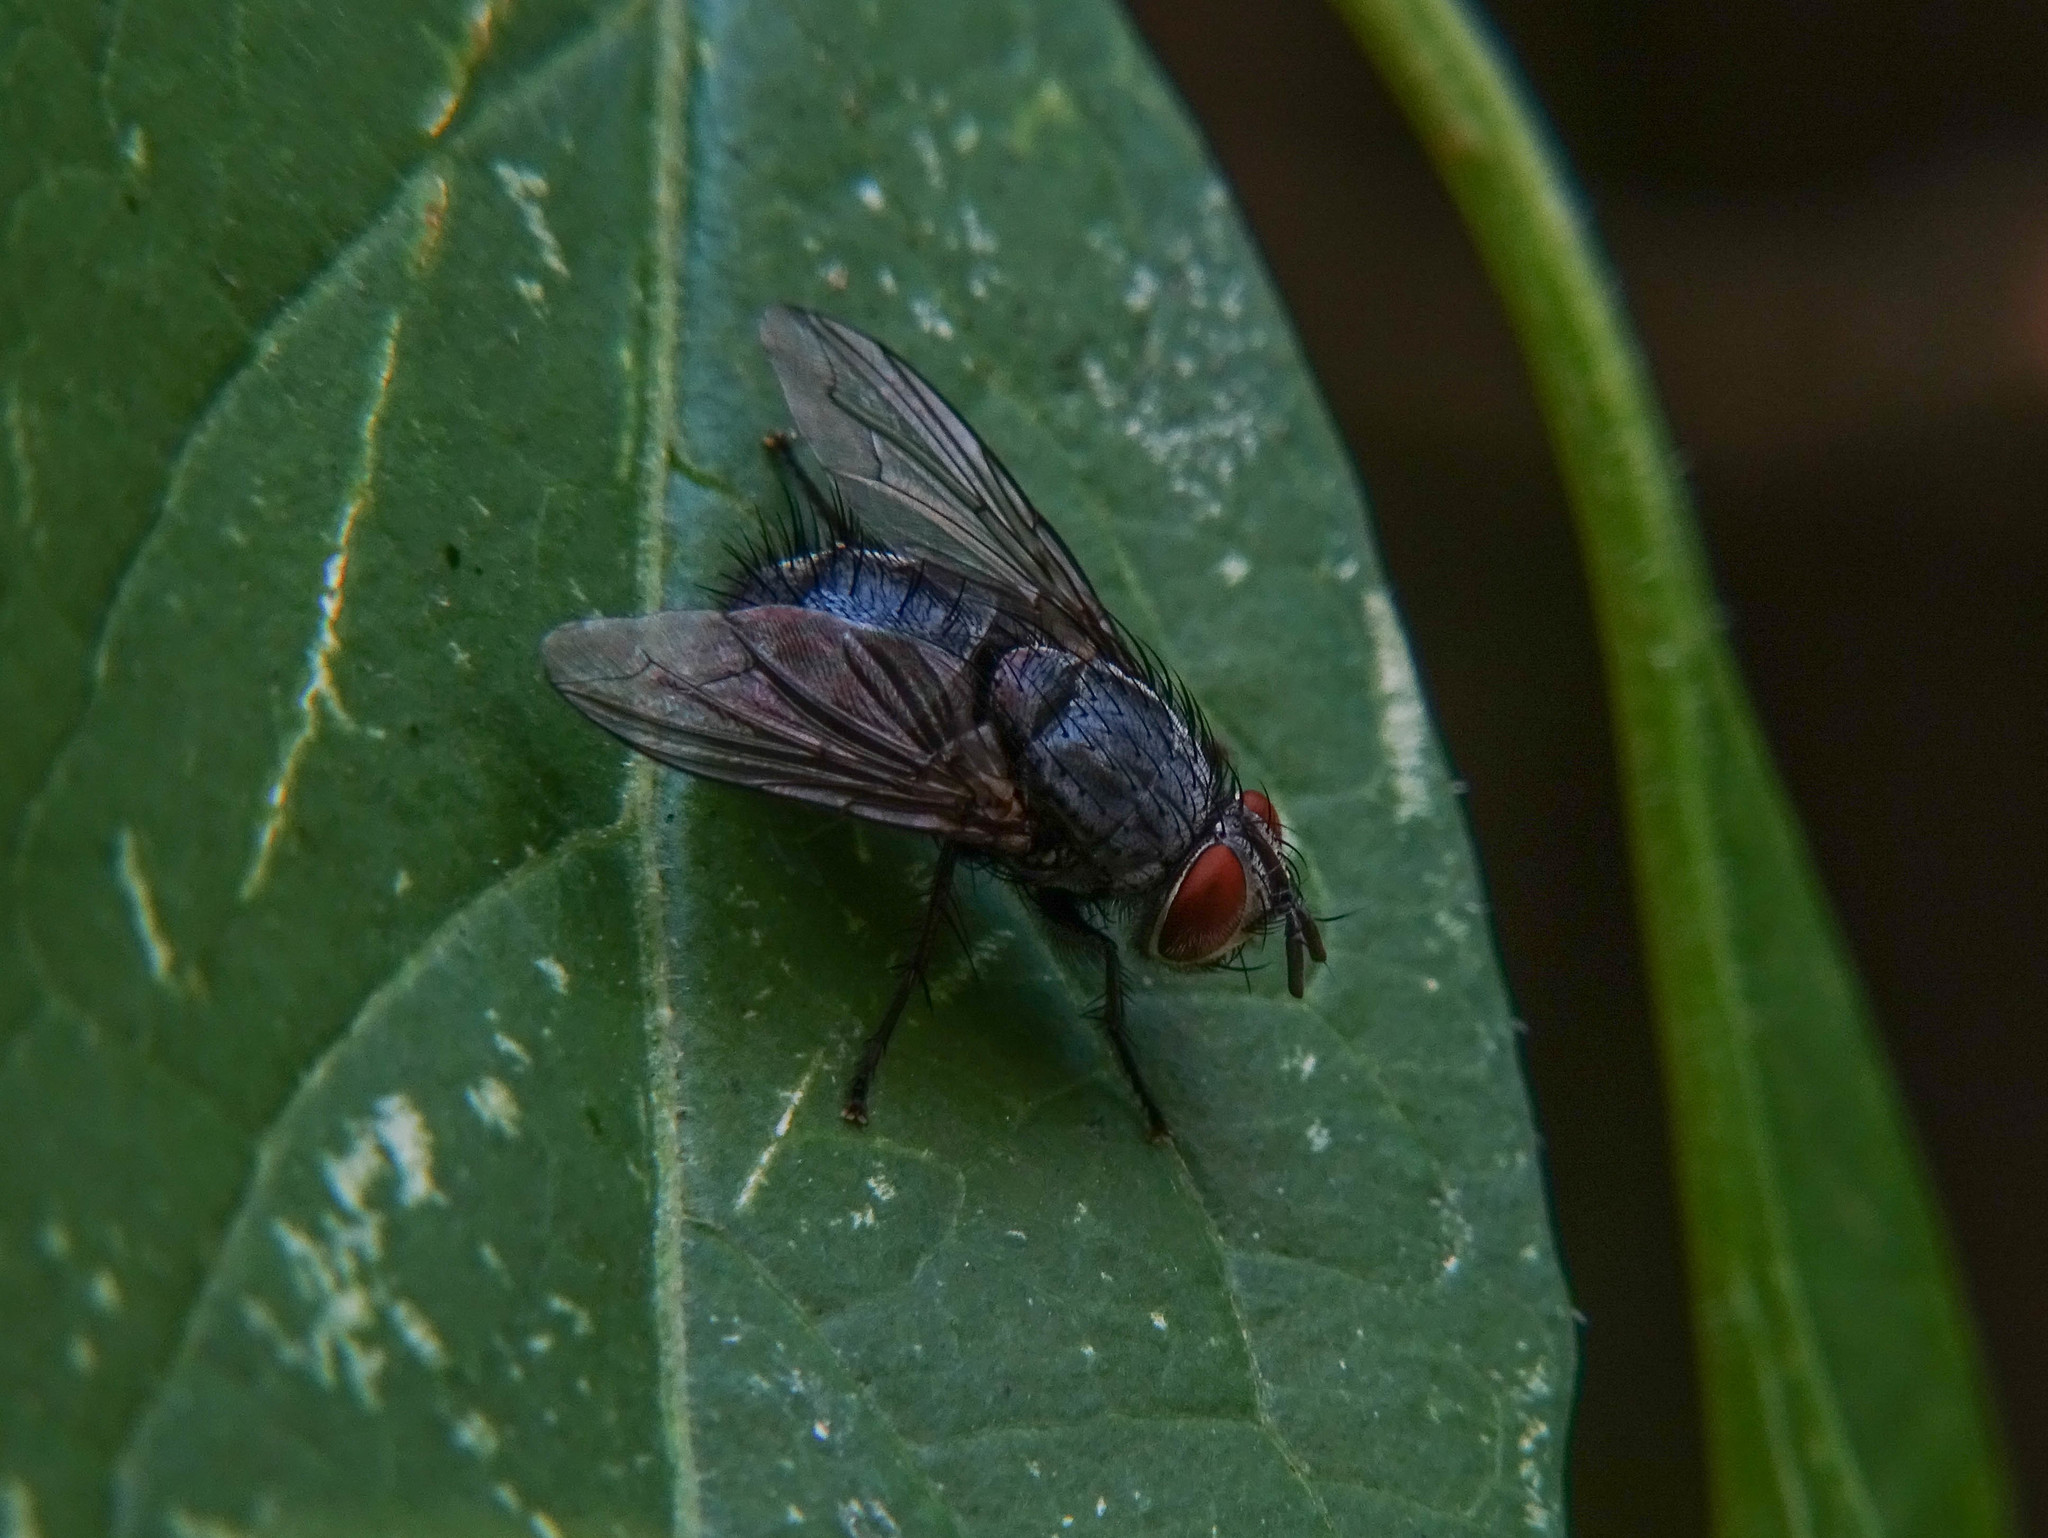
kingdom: Animalia
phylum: Arthropoda
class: Insecta
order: Diptera
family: Tachinidae
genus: Epicampocera
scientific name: Epicampocera succincta
